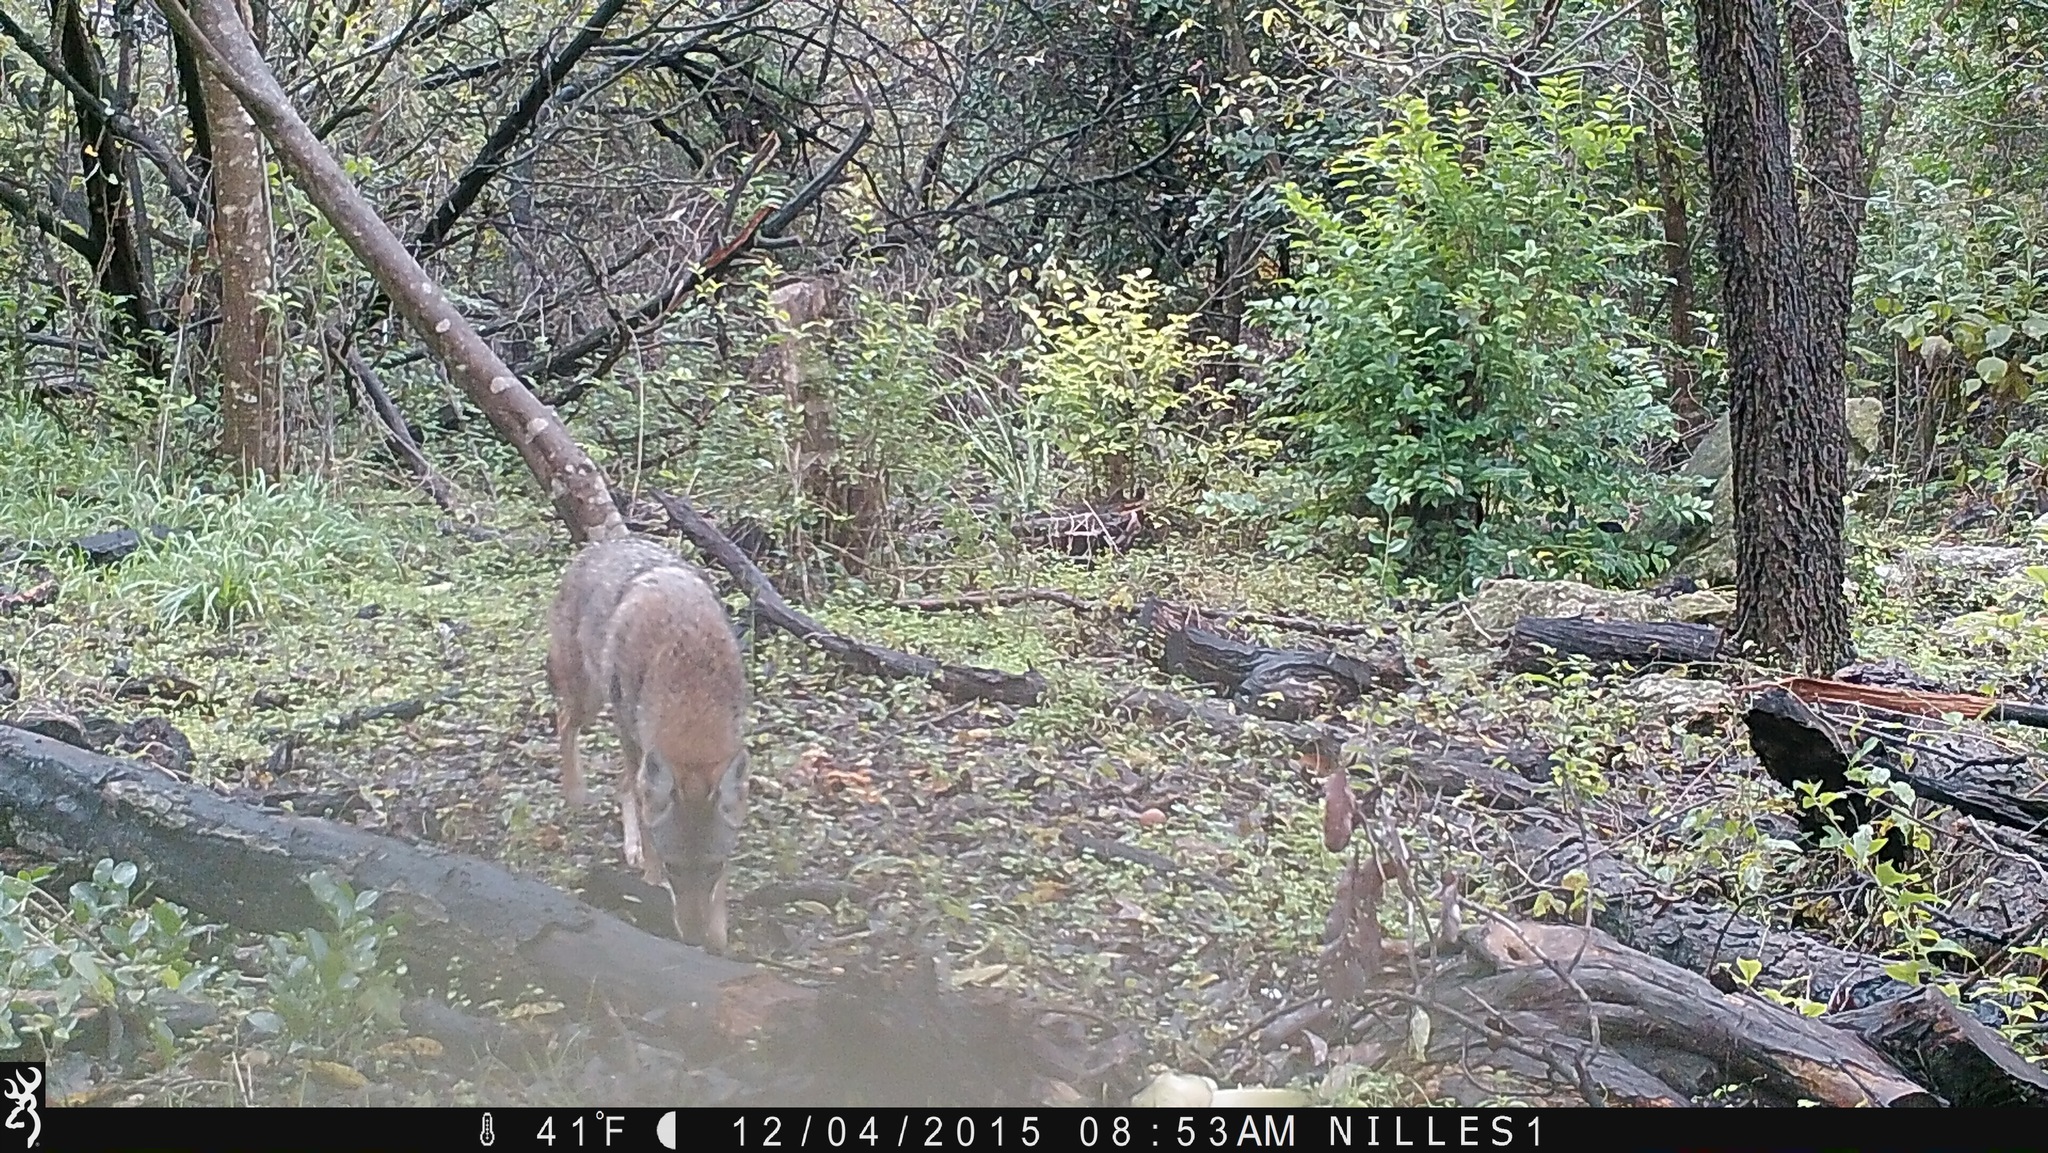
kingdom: Animalia
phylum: Chordata
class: Mammalia
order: Carnivora
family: Canidae
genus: Canis
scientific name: Canis latrans
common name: Coyote
